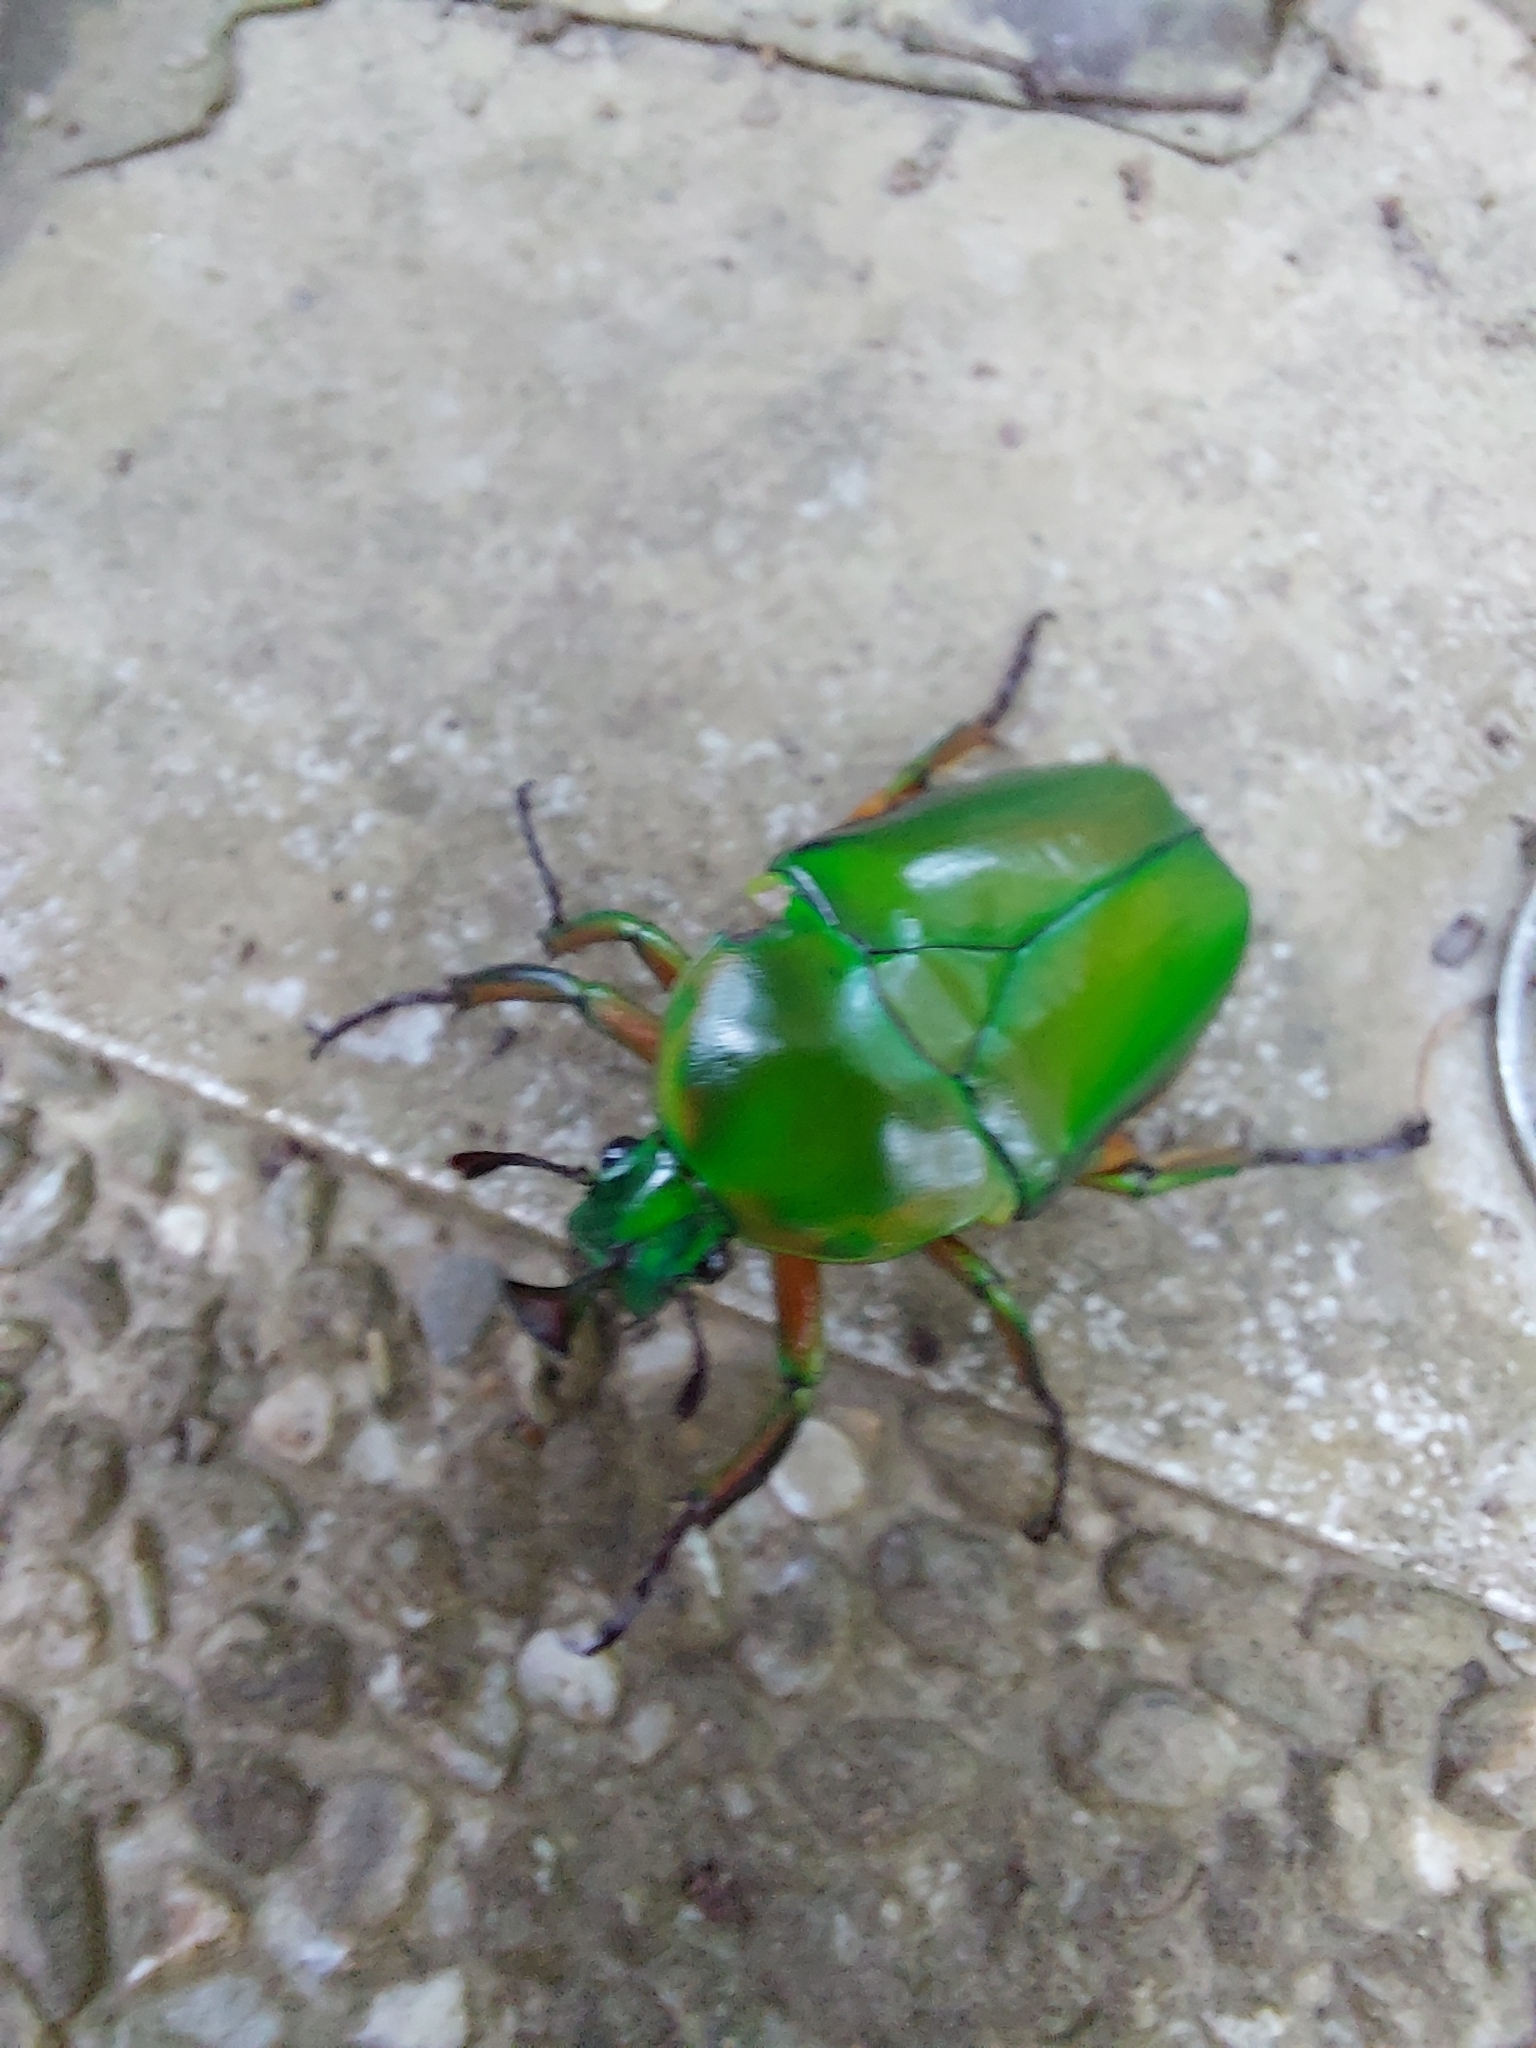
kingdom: Animalia
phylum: Arthropoda
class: Insecta
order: Coleoptera
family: Scarabaeidae
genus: Trigonophorus
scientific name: Trigonophorus rothschildi
